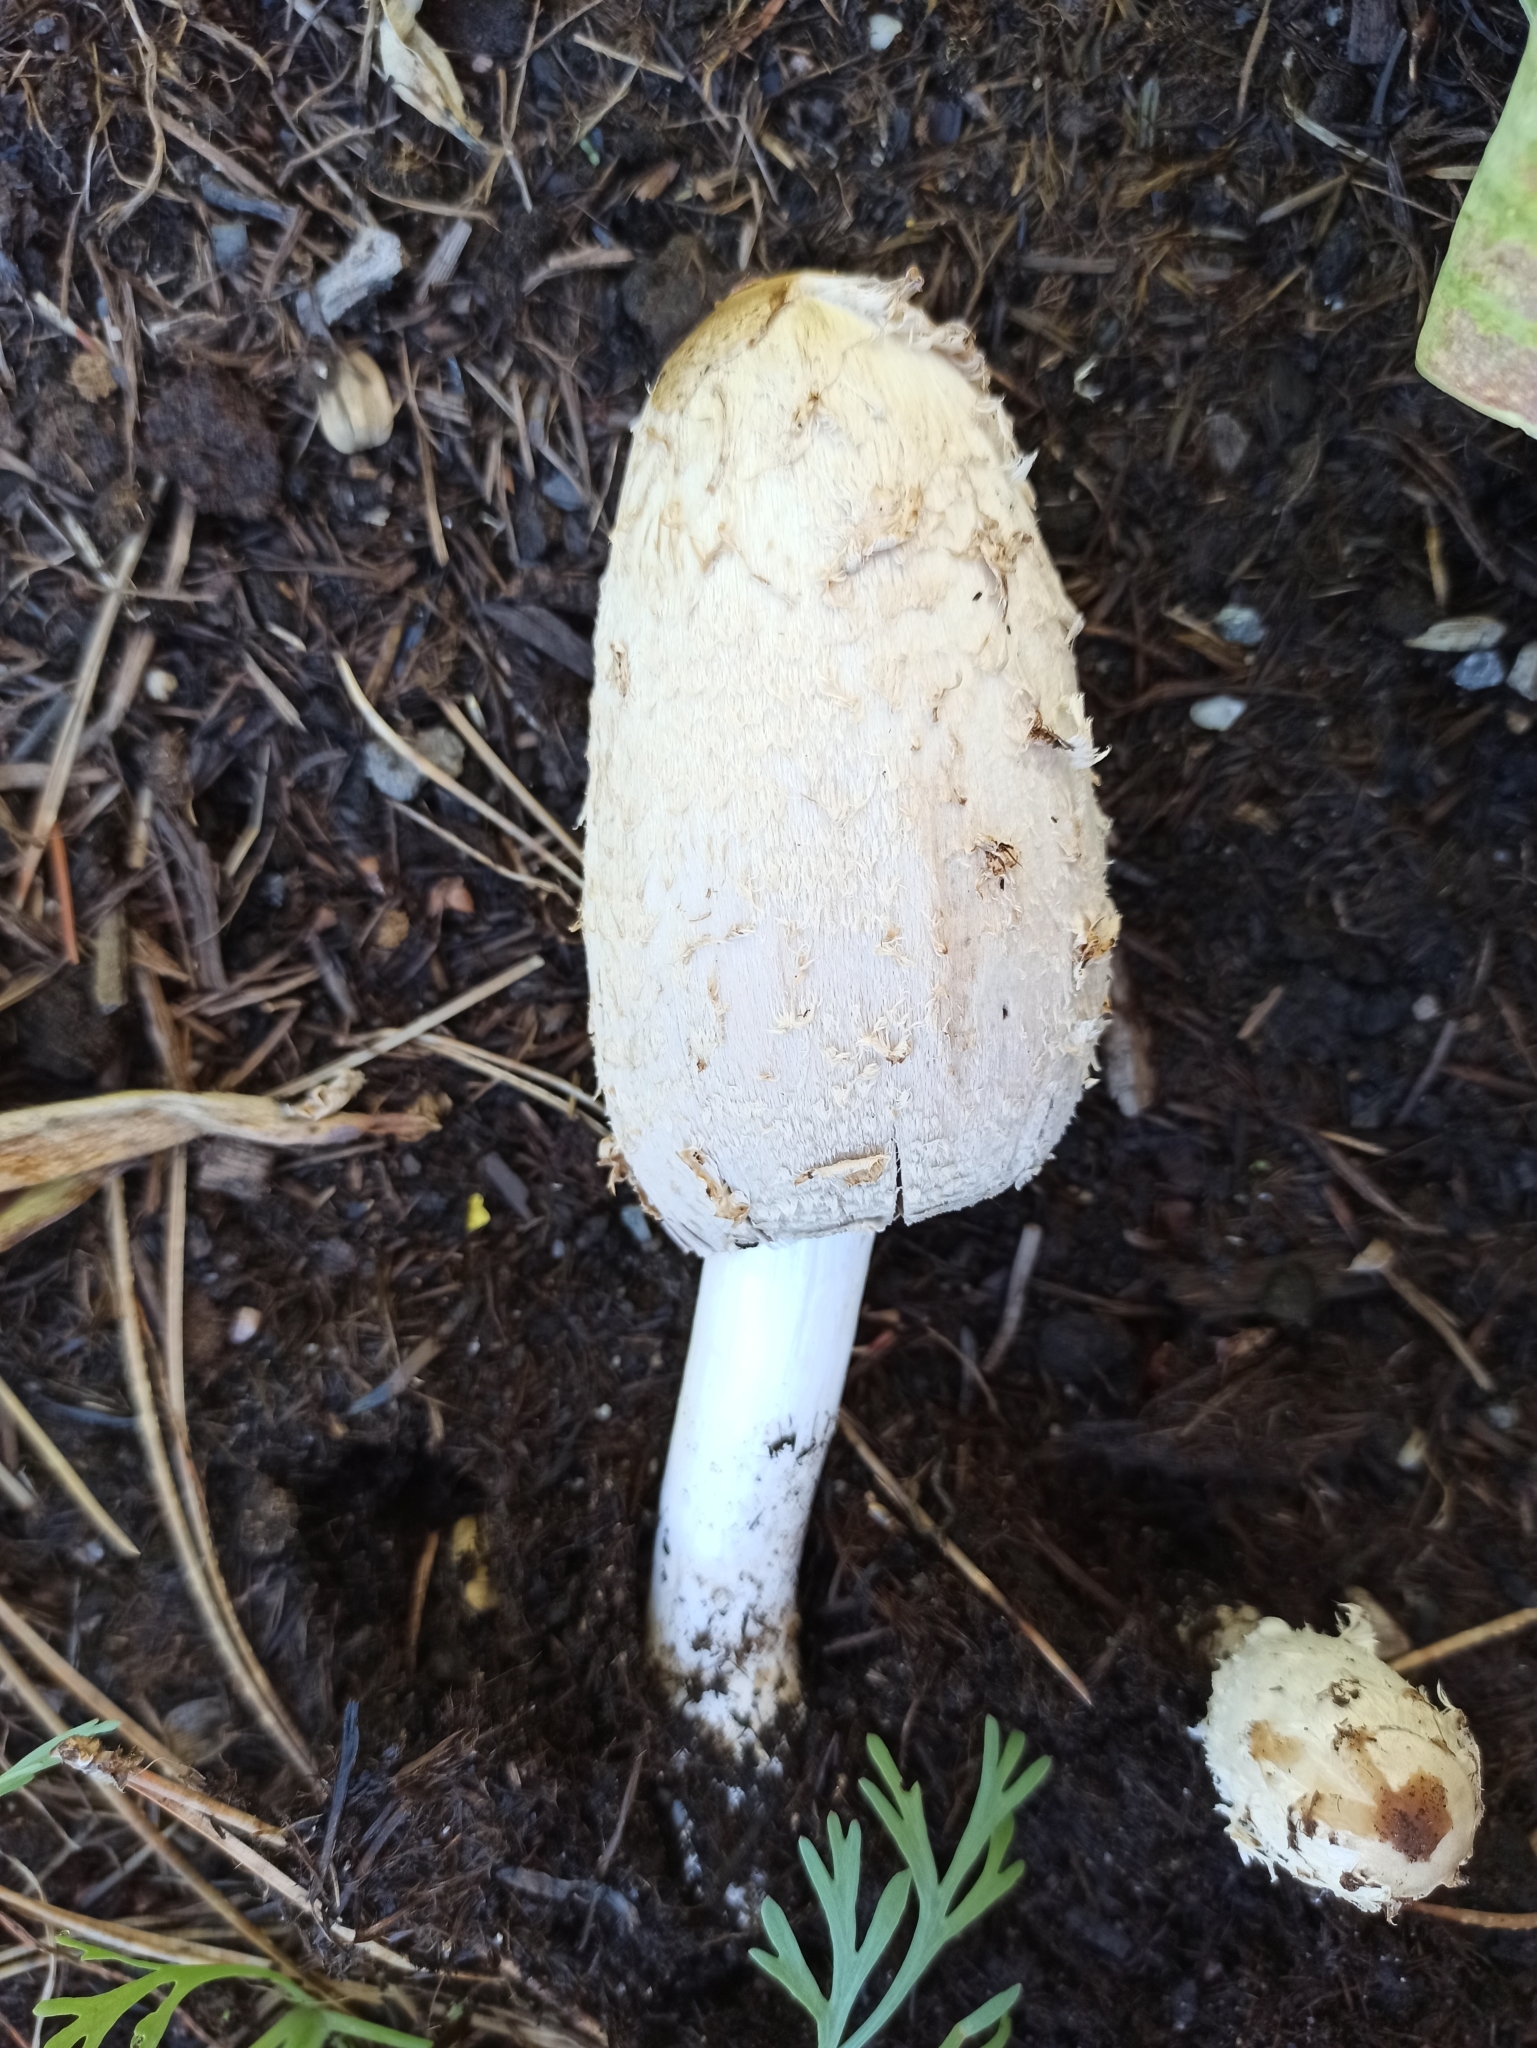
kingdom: Fungi
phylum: Basidiomycota
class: Agaricomycetes
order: Agaricales
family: Agaricaceae
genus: Coprinus
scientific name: Coprinus comatus
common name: Lawyer's wig
